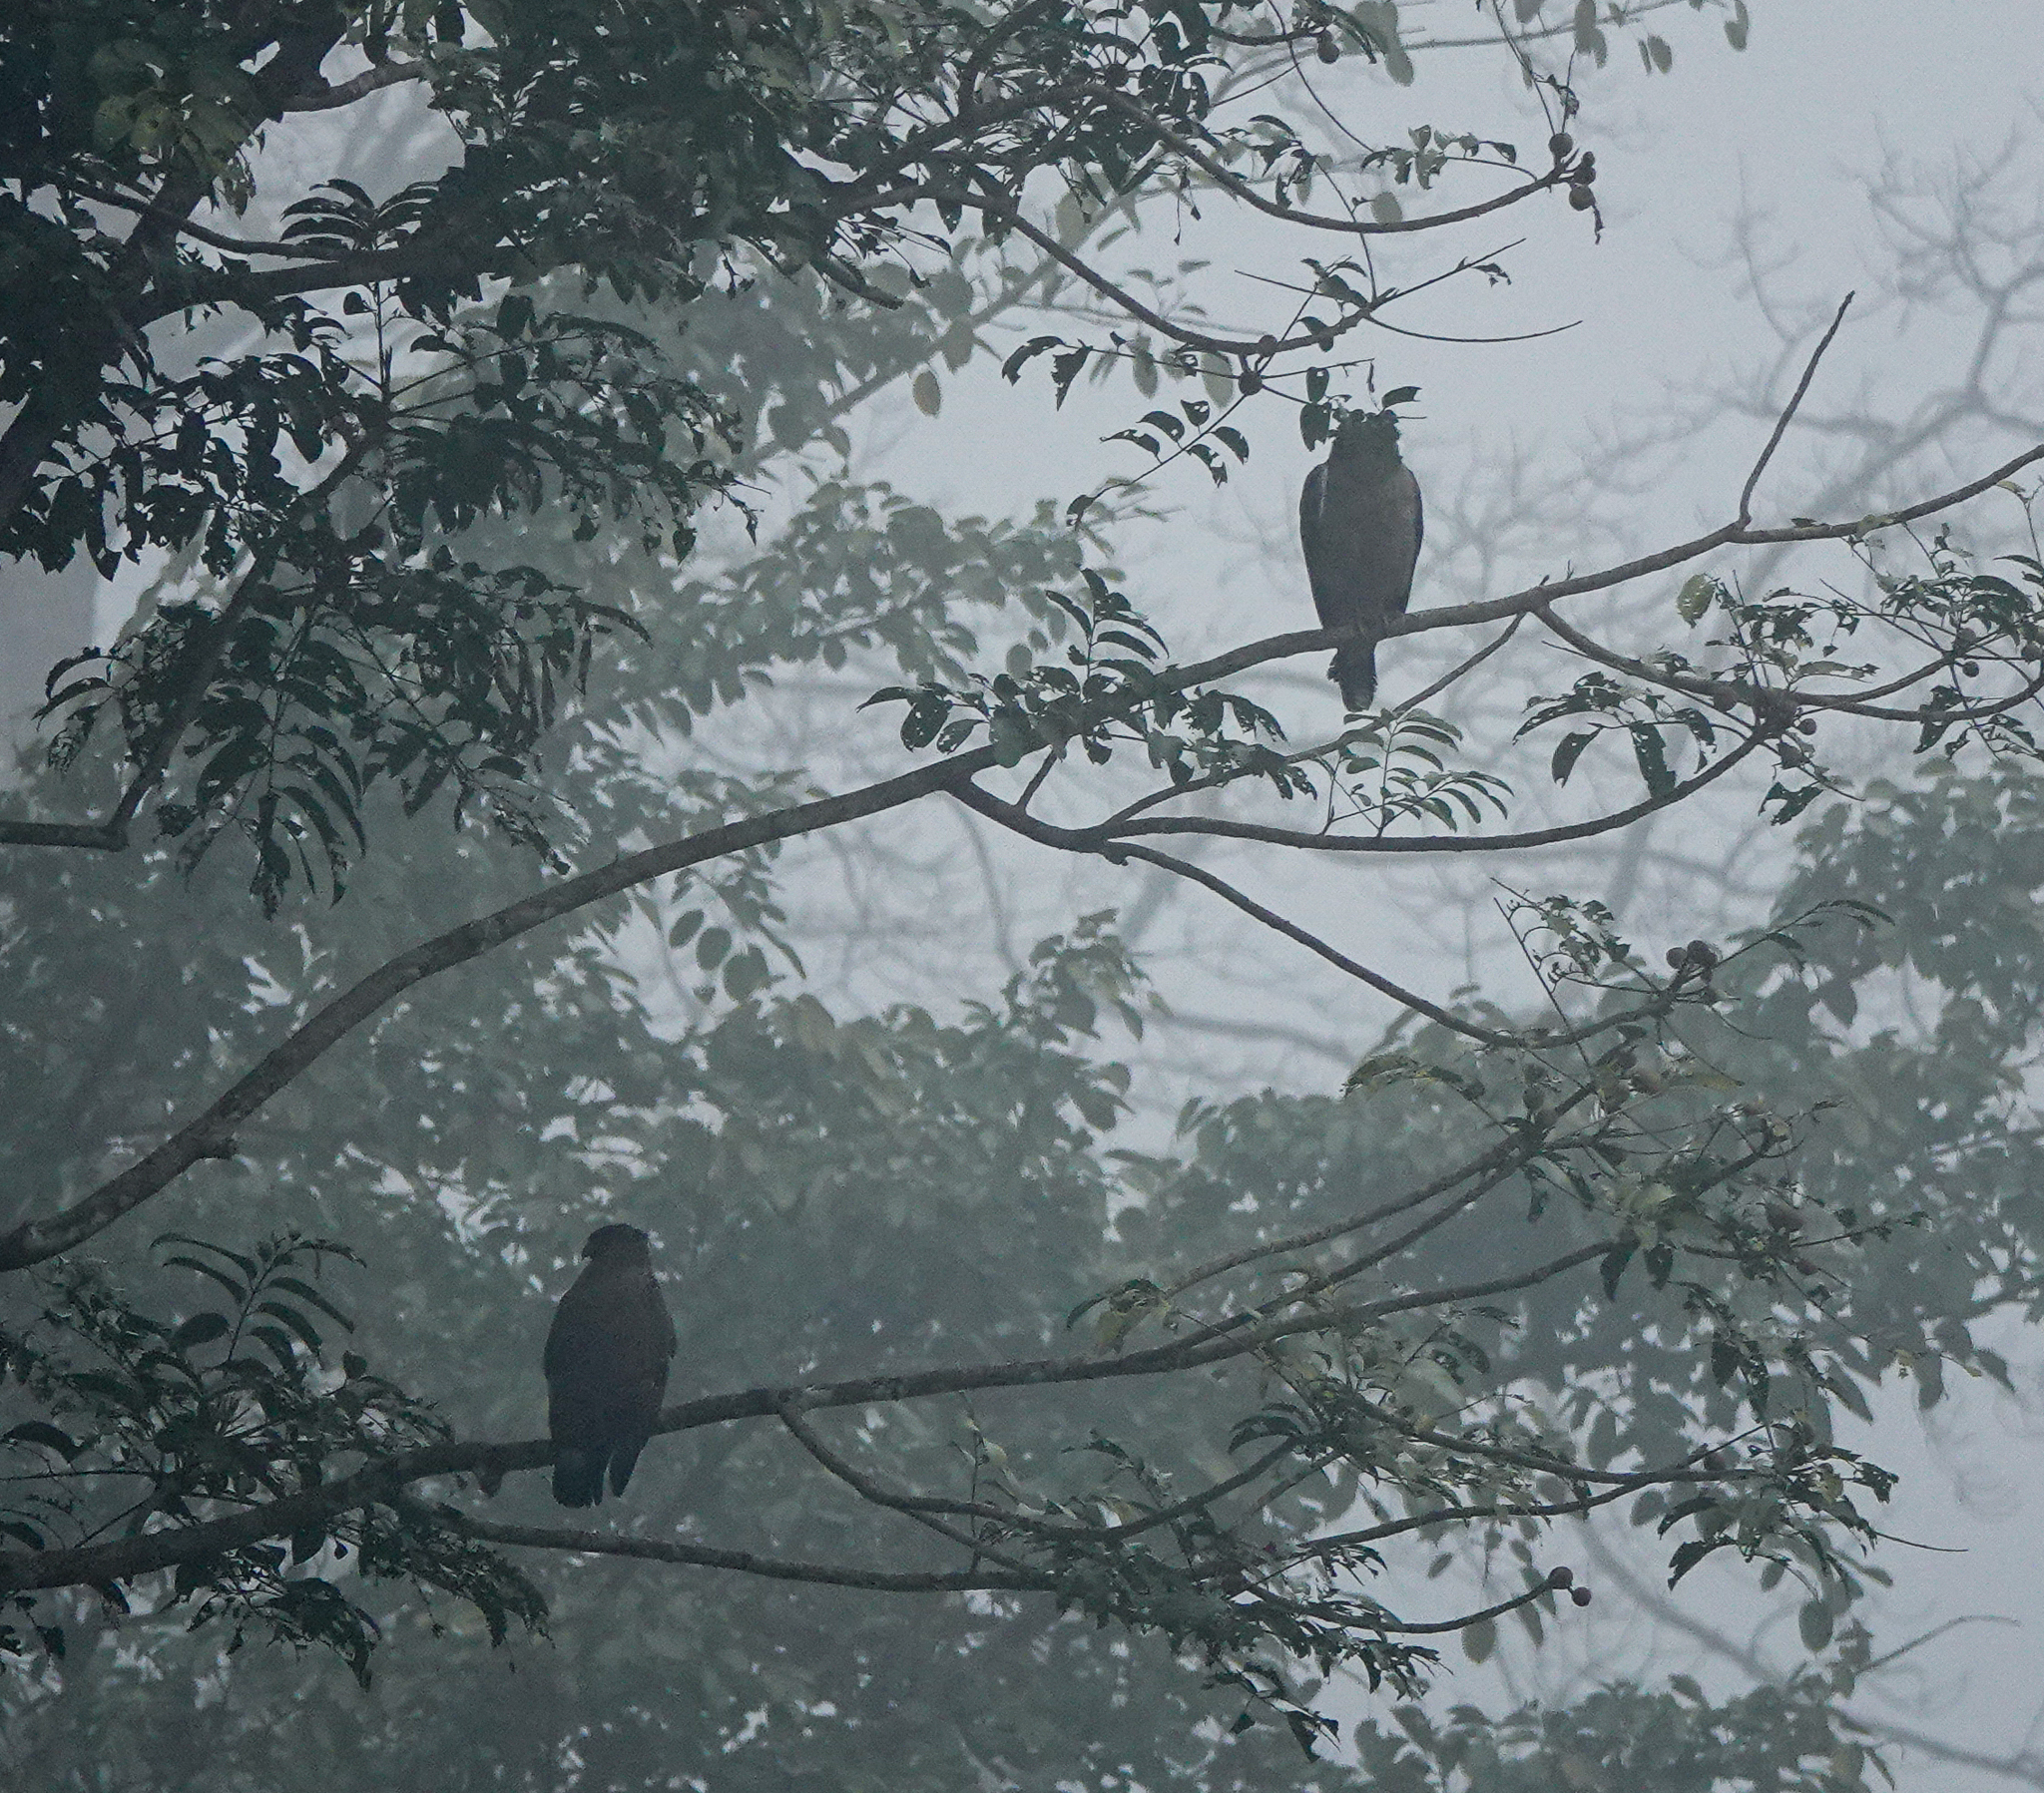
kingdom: Animalia
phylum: Chordata
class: Aves
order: Accipitriformes
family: Accipitridae
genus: Spilornis
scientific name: Spilornis cheela
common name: Crested serpent eagle
